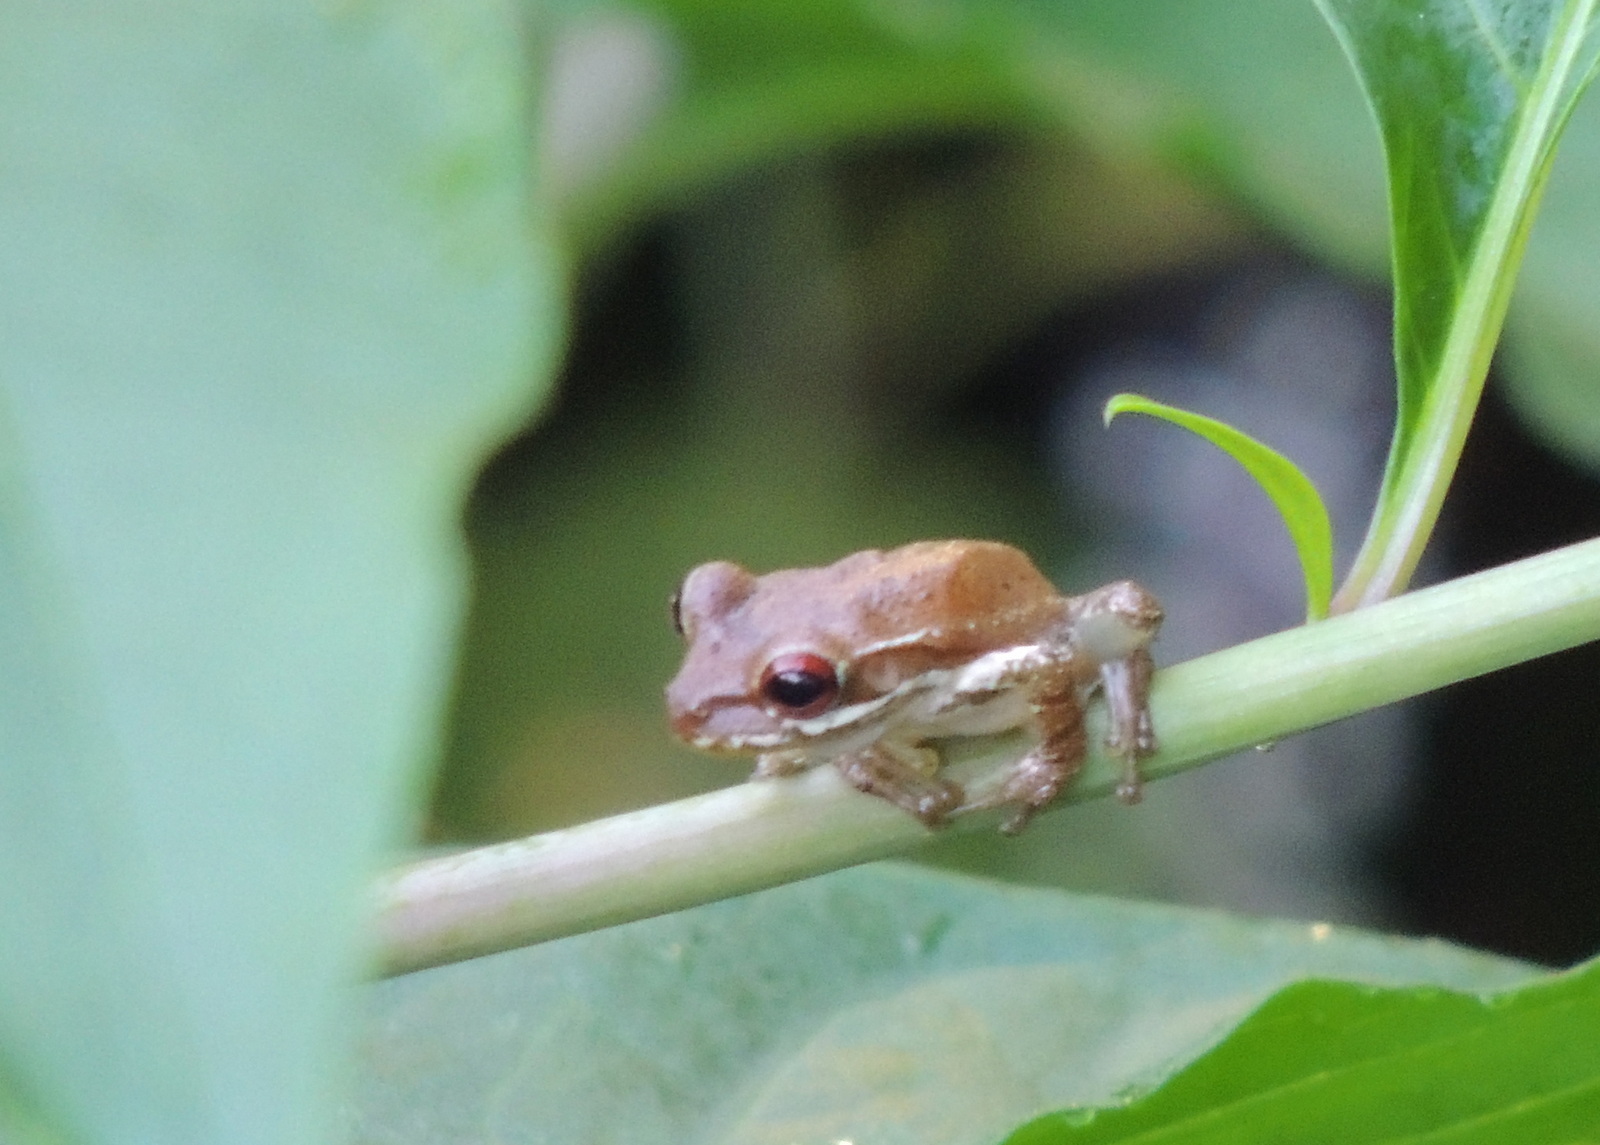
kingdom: Animalia
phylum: Chordata
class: Amphibia
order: Anura
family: Hylidae
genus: Osteopilus
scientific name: Osteopilus septentrionalis
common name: Cuban treefrog
